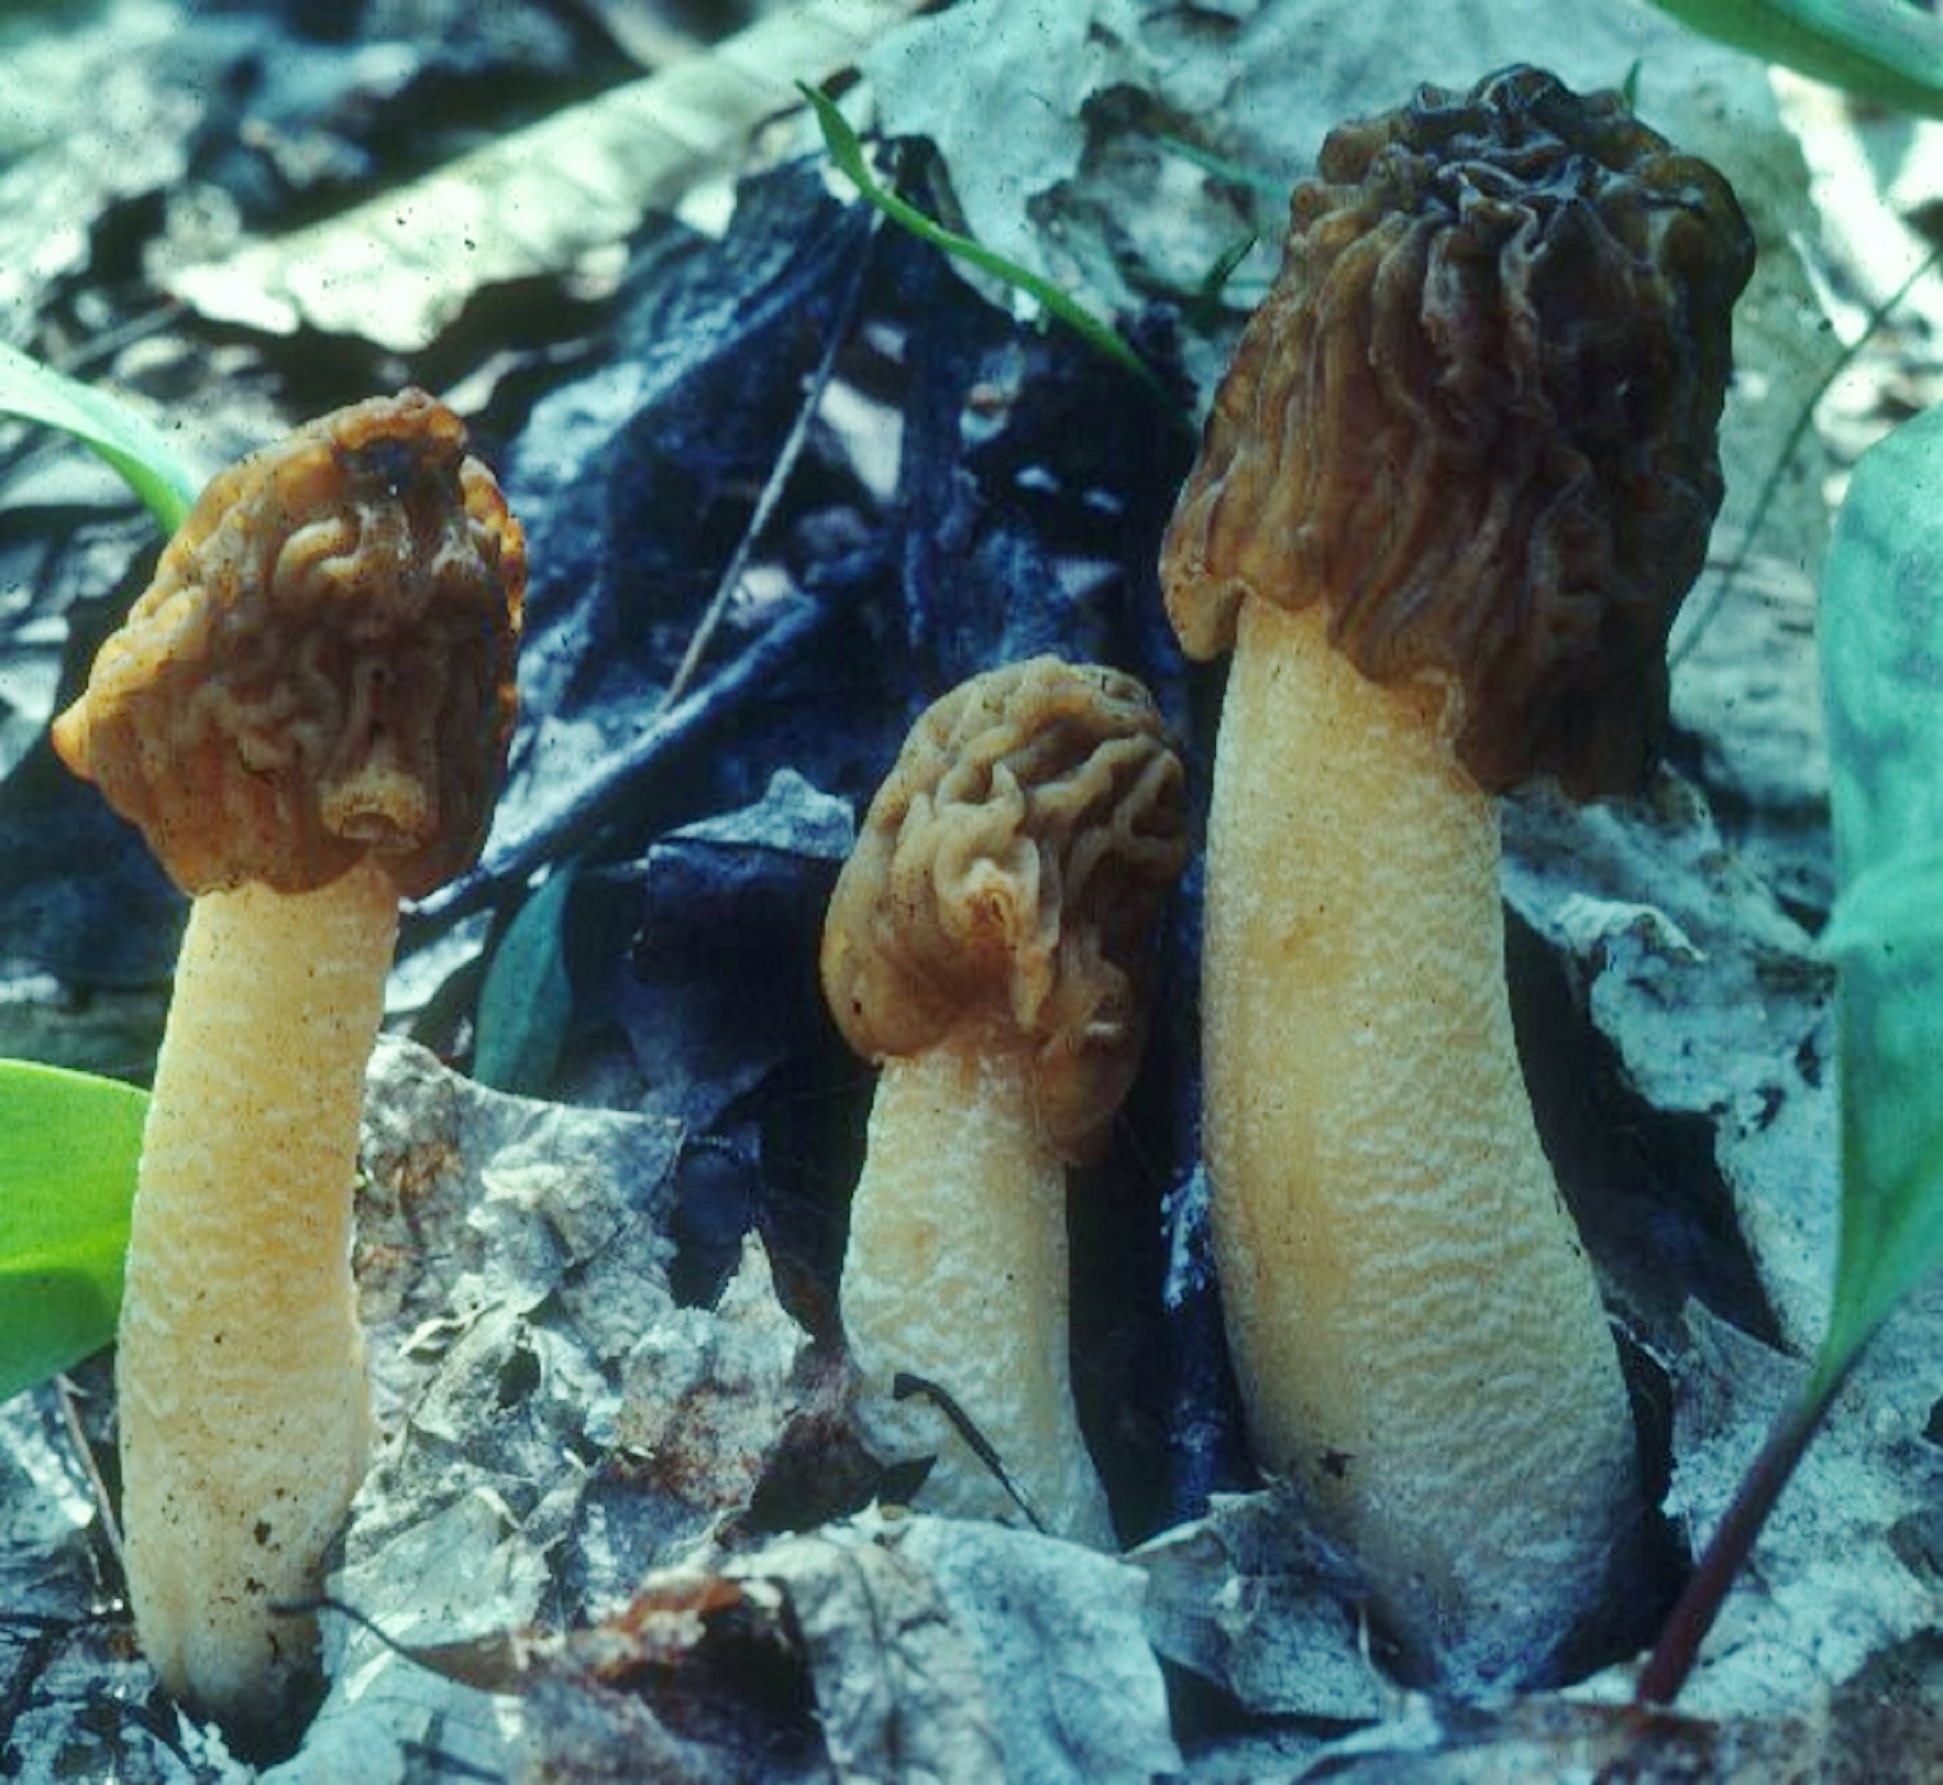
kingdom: Fungi
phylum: Ascomycota
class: Pezizomycetes
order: Pezizales
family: Morchellaceae
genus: Verpa
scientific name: Verpa bohemica
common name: Wrinkled thimble morel
